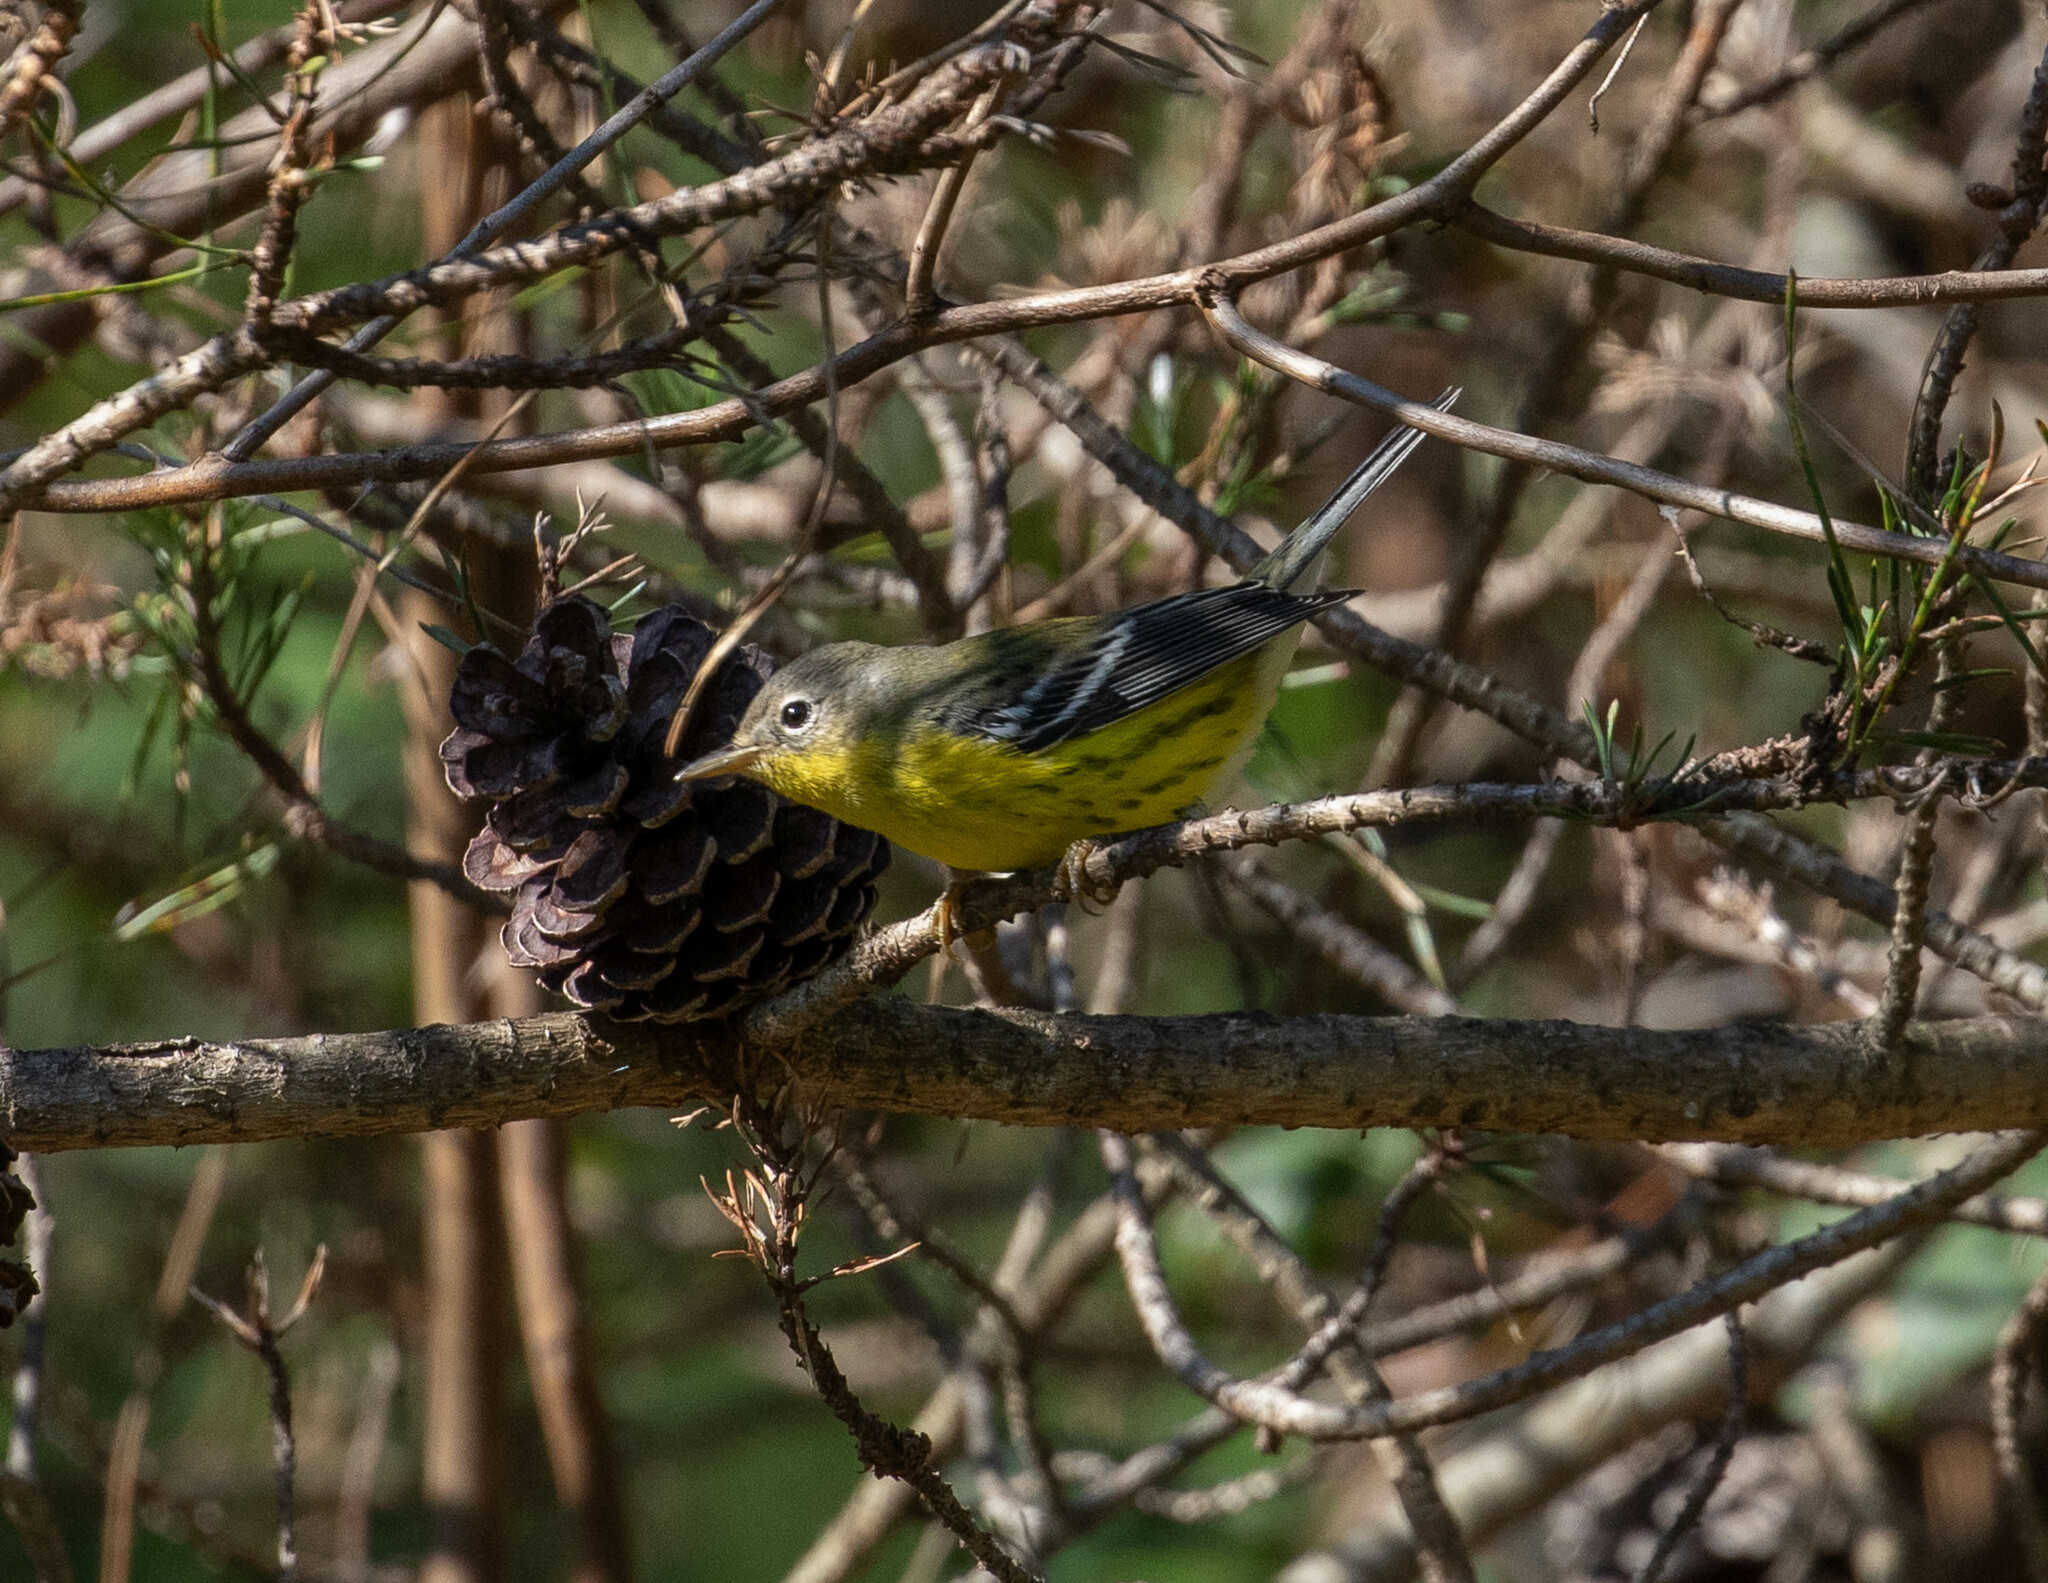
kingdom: Animalia
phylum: Chordata
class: Aves
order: Passeriformes
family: Parulidae
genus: Setophaga
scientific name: Setophaga magnolia
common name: Magnolia warbler
